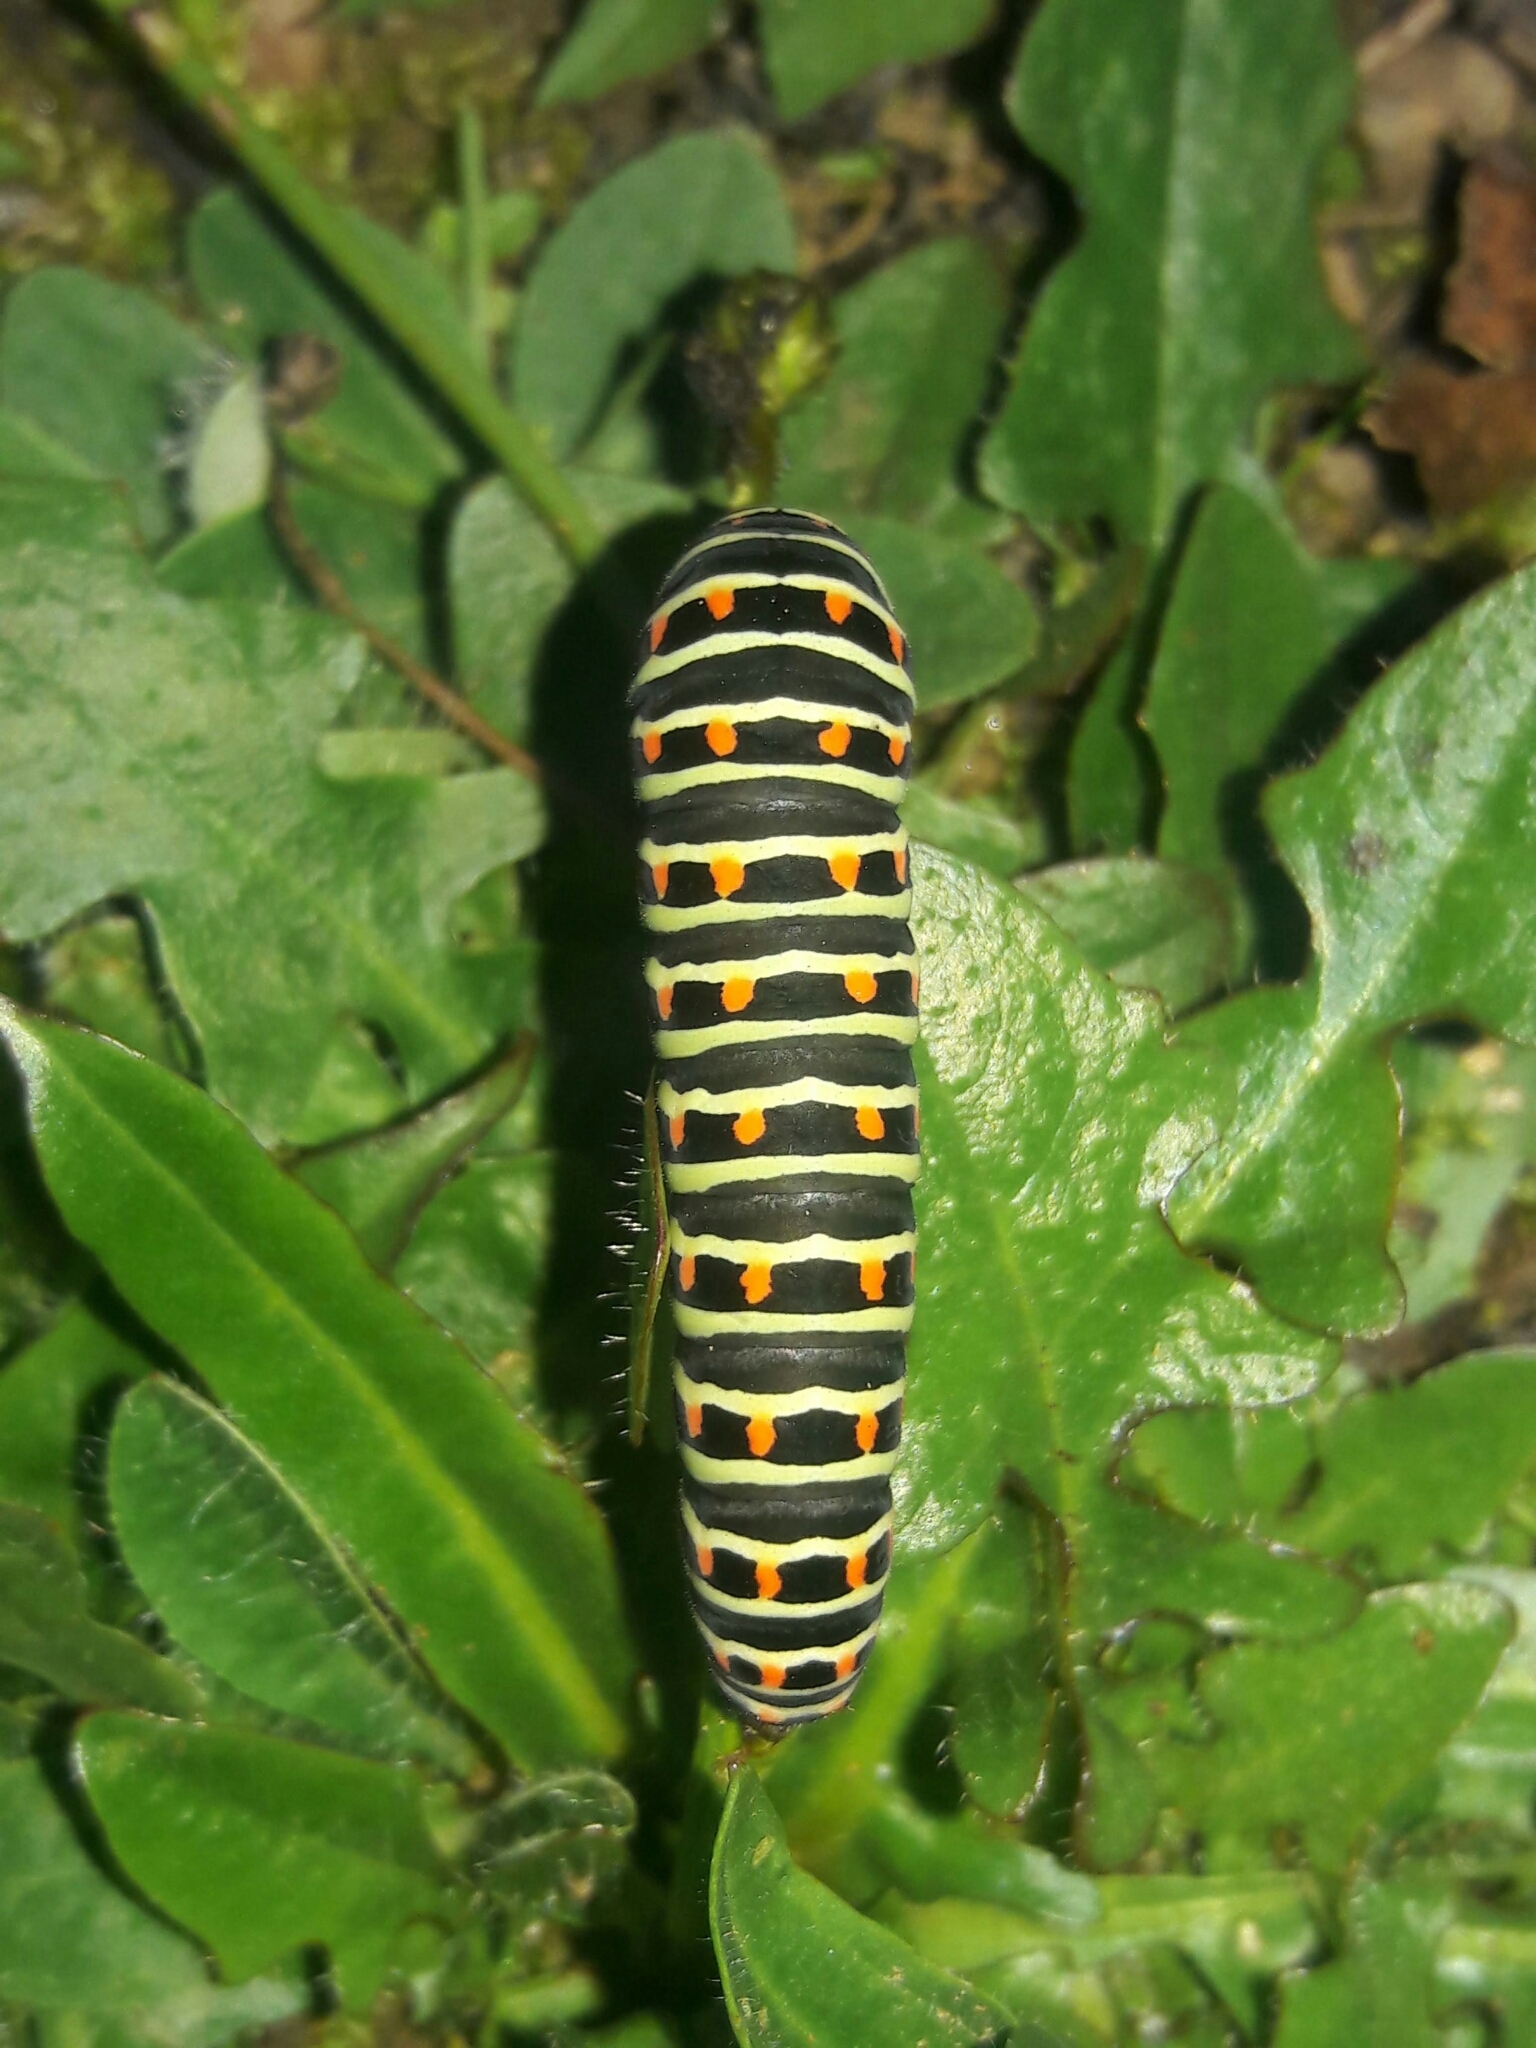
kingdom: Animalia
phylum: Arthropoda
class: Insecta
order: Lepidoptera
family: Papilionidae
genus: Papilio
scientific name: Papilio machaon
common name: Swallowtail
